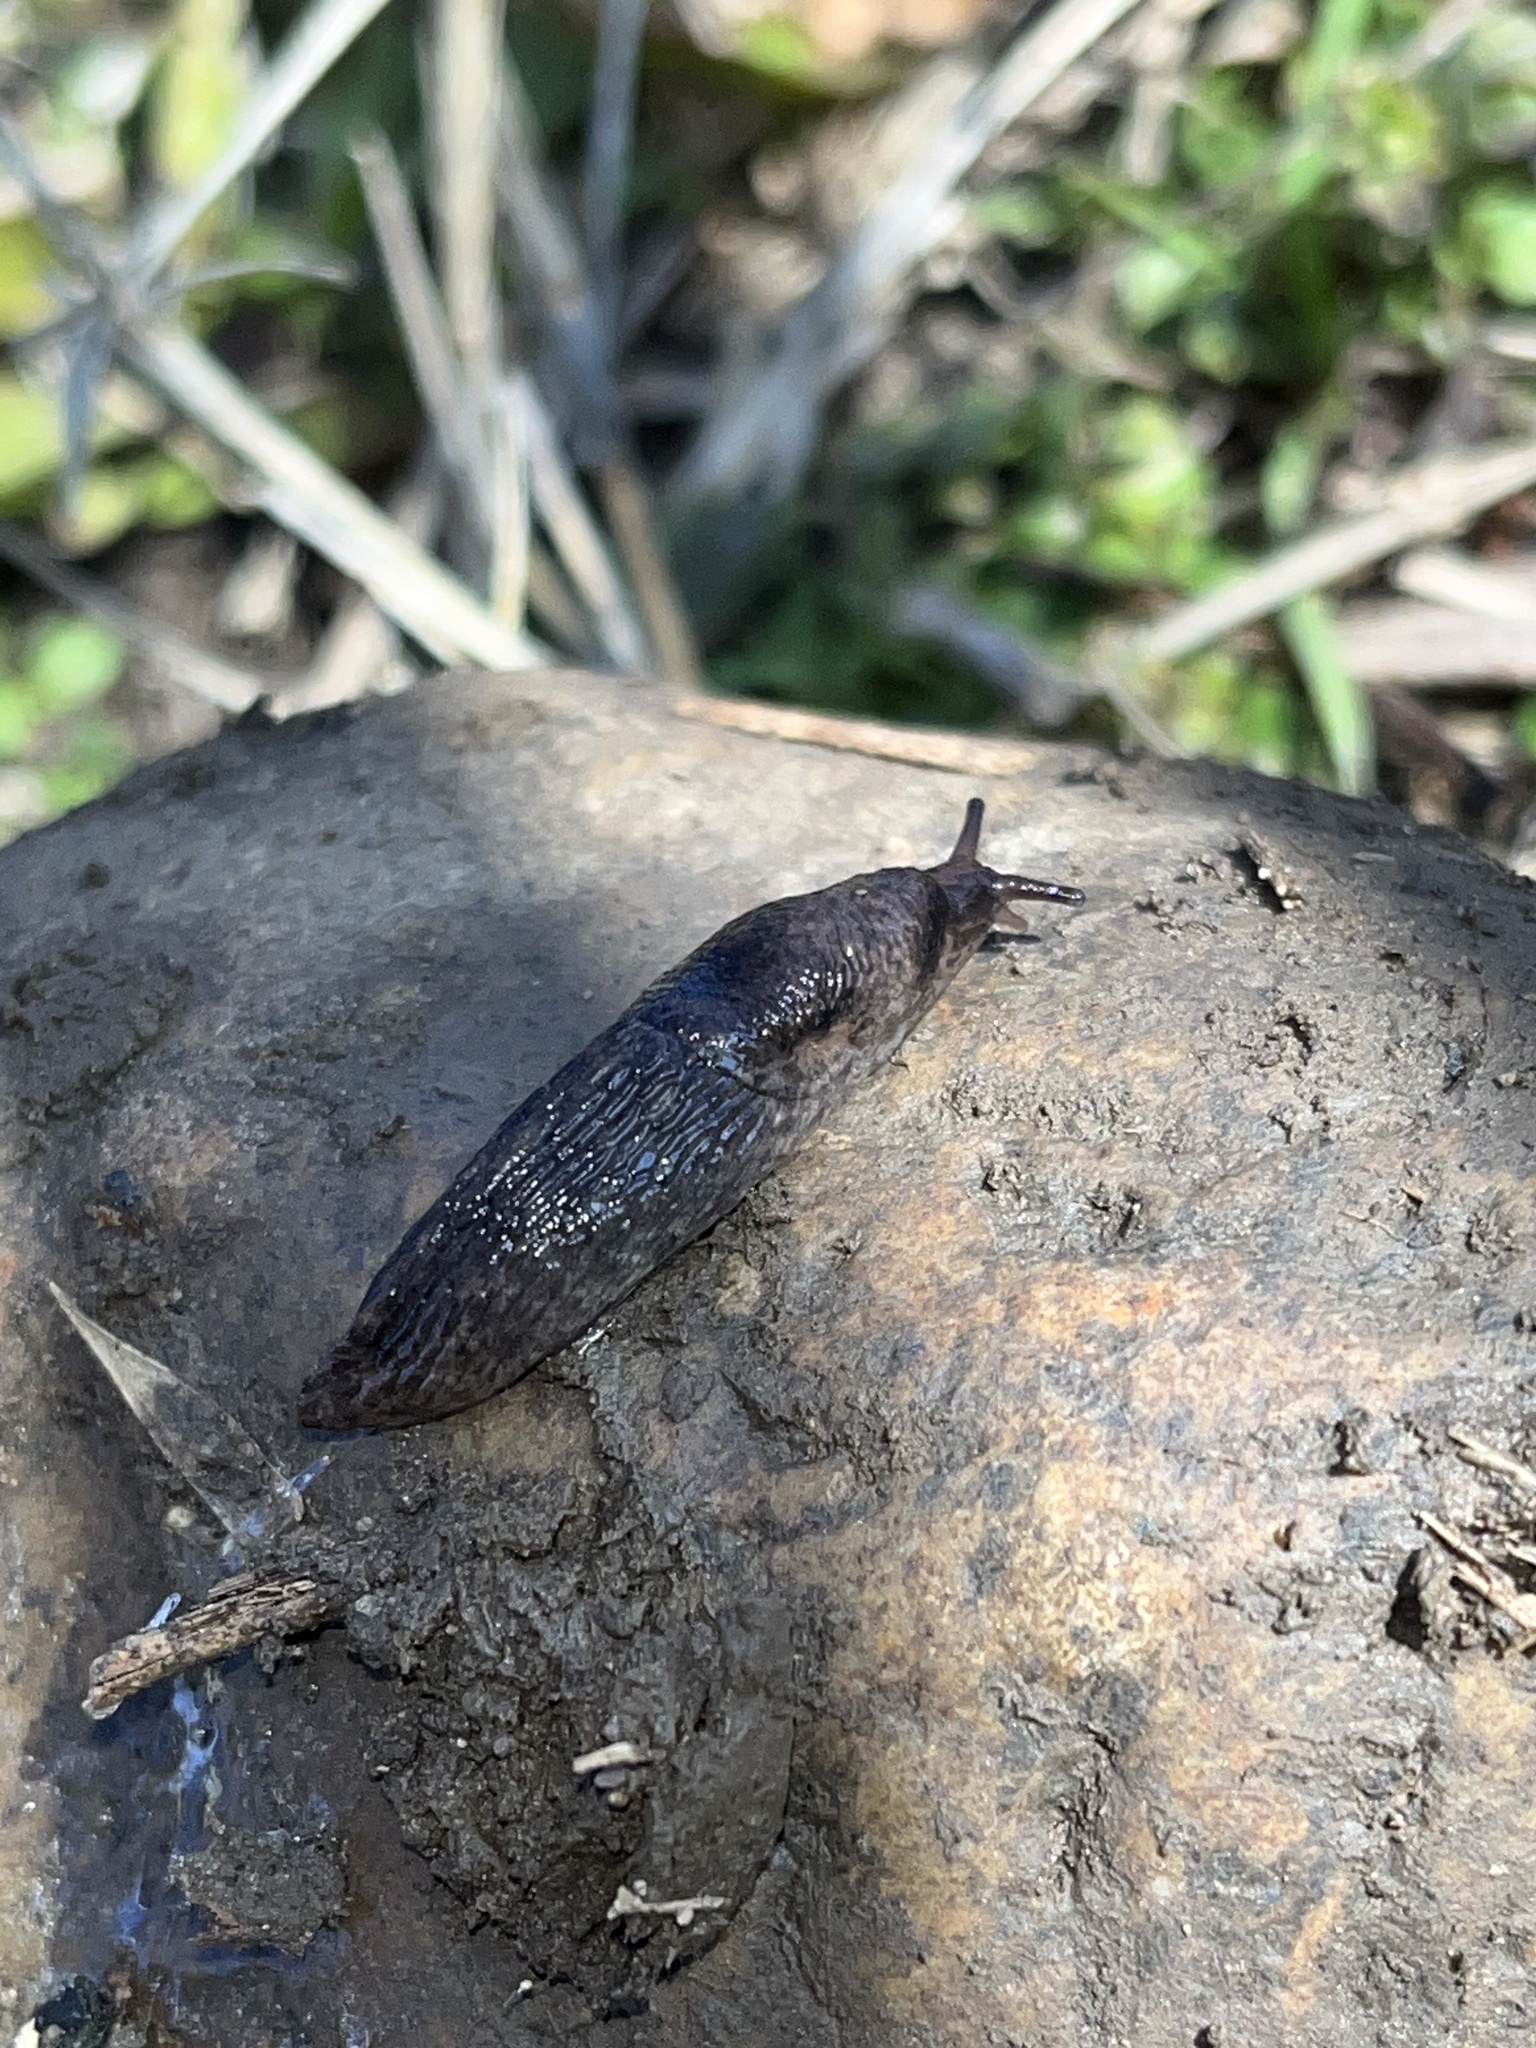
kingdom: Animalia
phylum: Mollusca
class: Gastropoda
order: Stylommatophora
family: Agriolimacidae
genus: Deroceras
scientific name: Deroceras reticulatum
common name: Gray field slug
